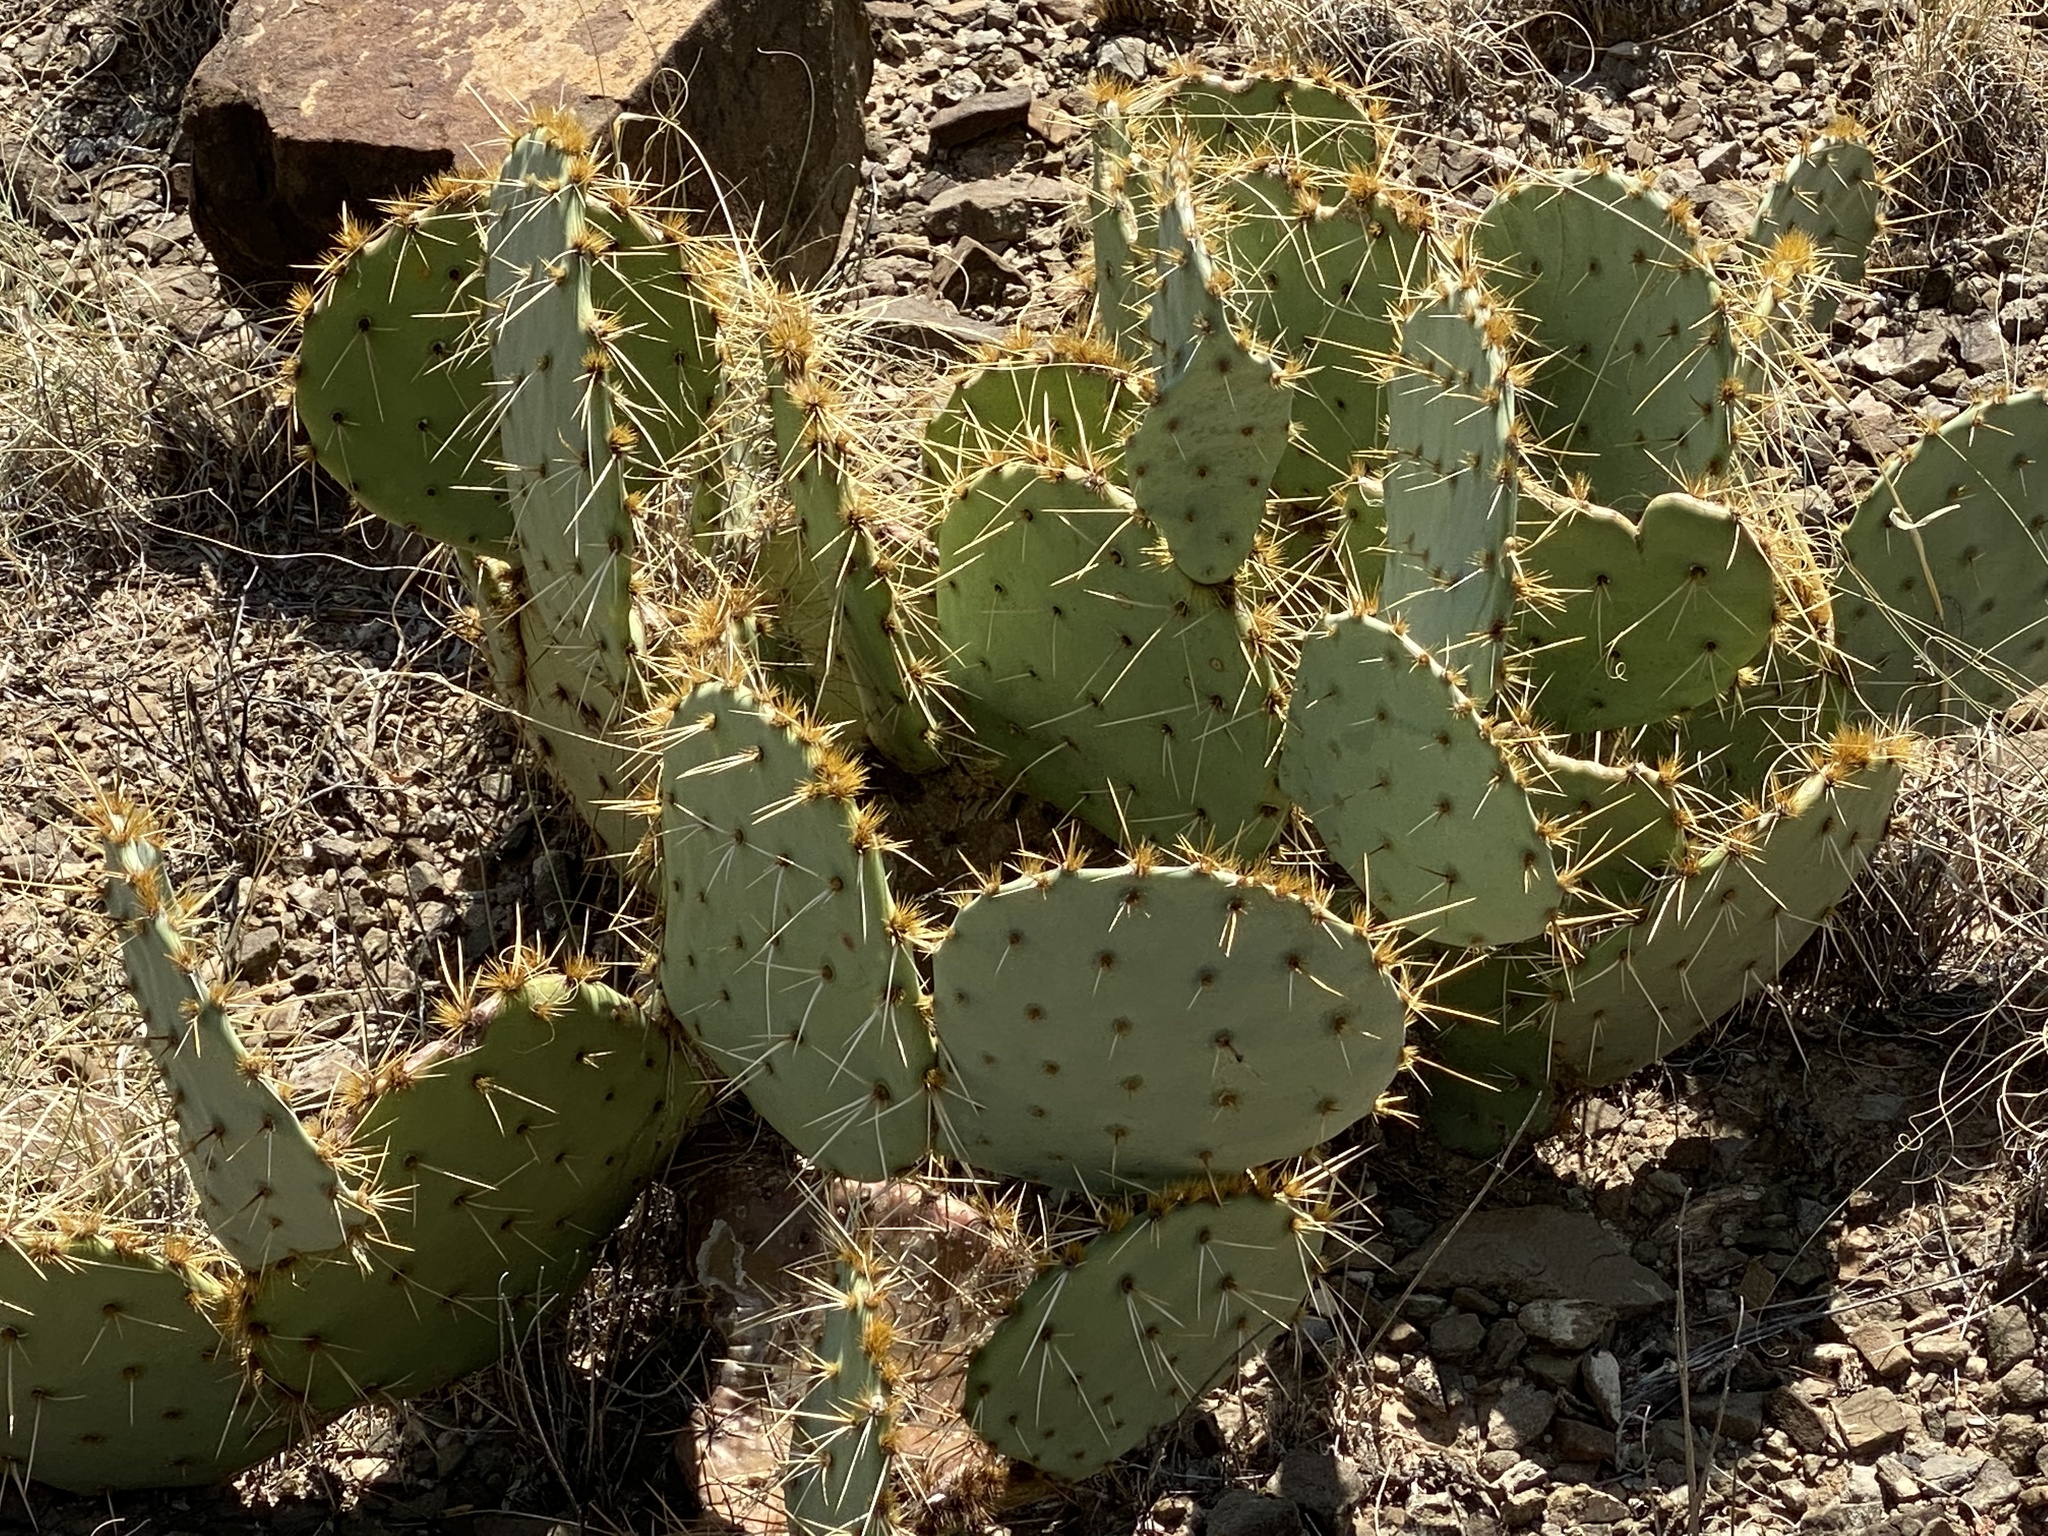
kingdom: Plantae
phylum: Tracheophyta
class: Magnoliopsida
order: Caryophyllales
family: Cactaceae
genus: Opuntia
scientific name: Opuntia engelmannii
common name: Cactus-apple
